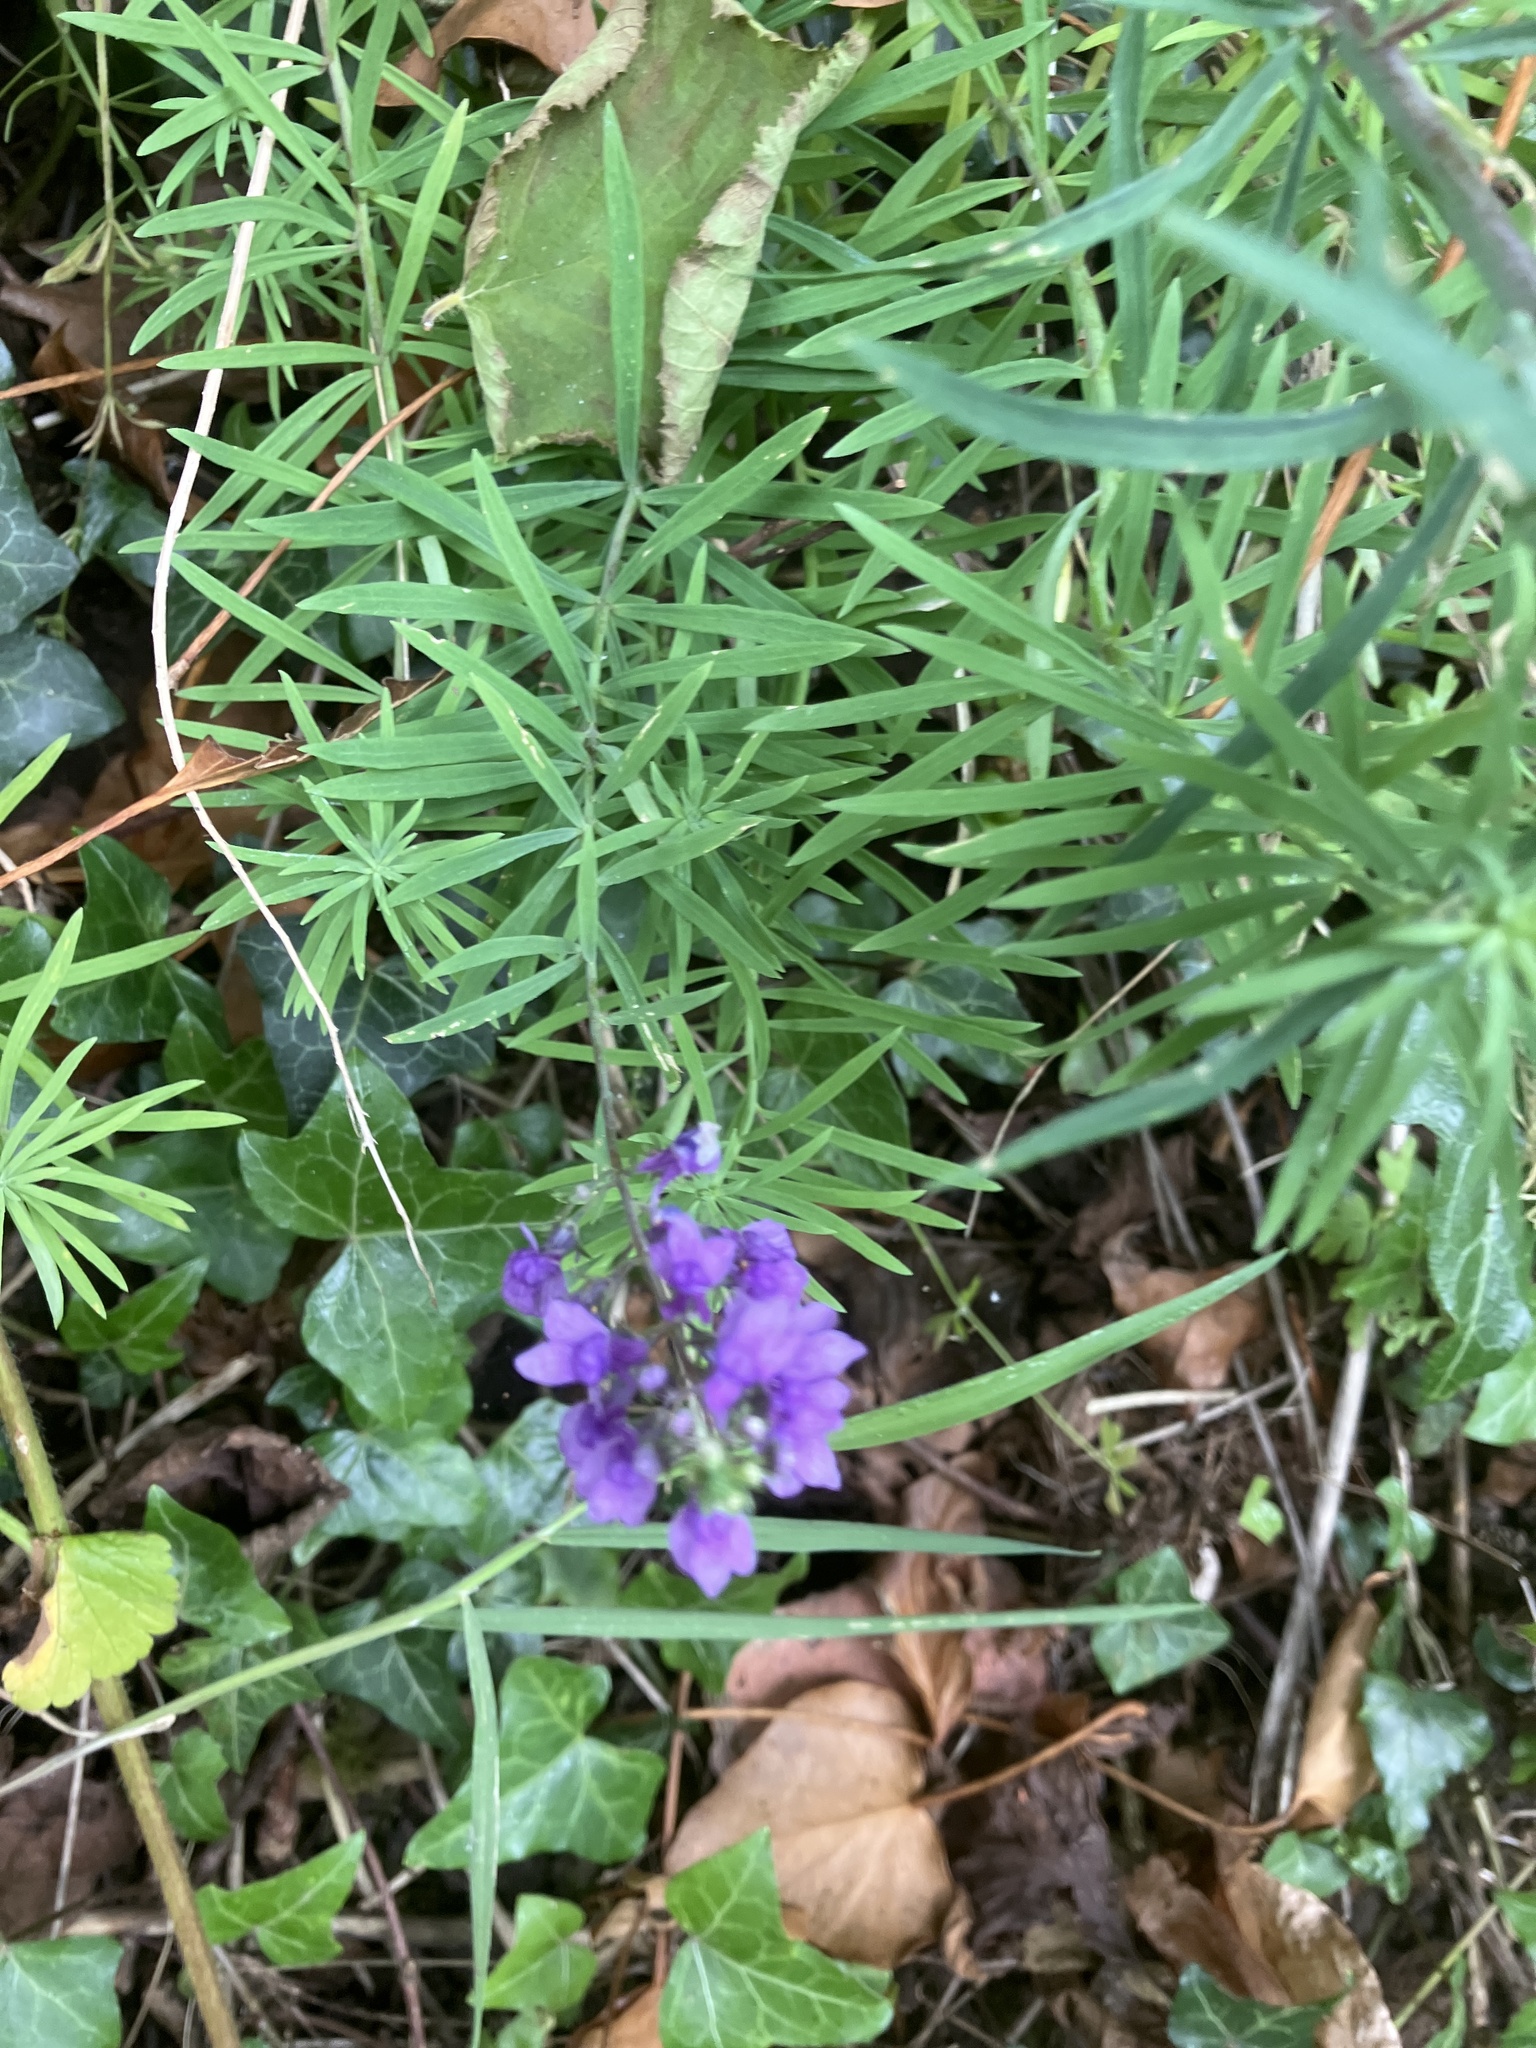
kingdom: Plantae
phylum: Tracheophyta
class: Magnoliopsida
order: Lamiales
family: Plantaginaceae
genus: Linaria
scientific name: Linaria purpurea
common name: Purple toadflax
